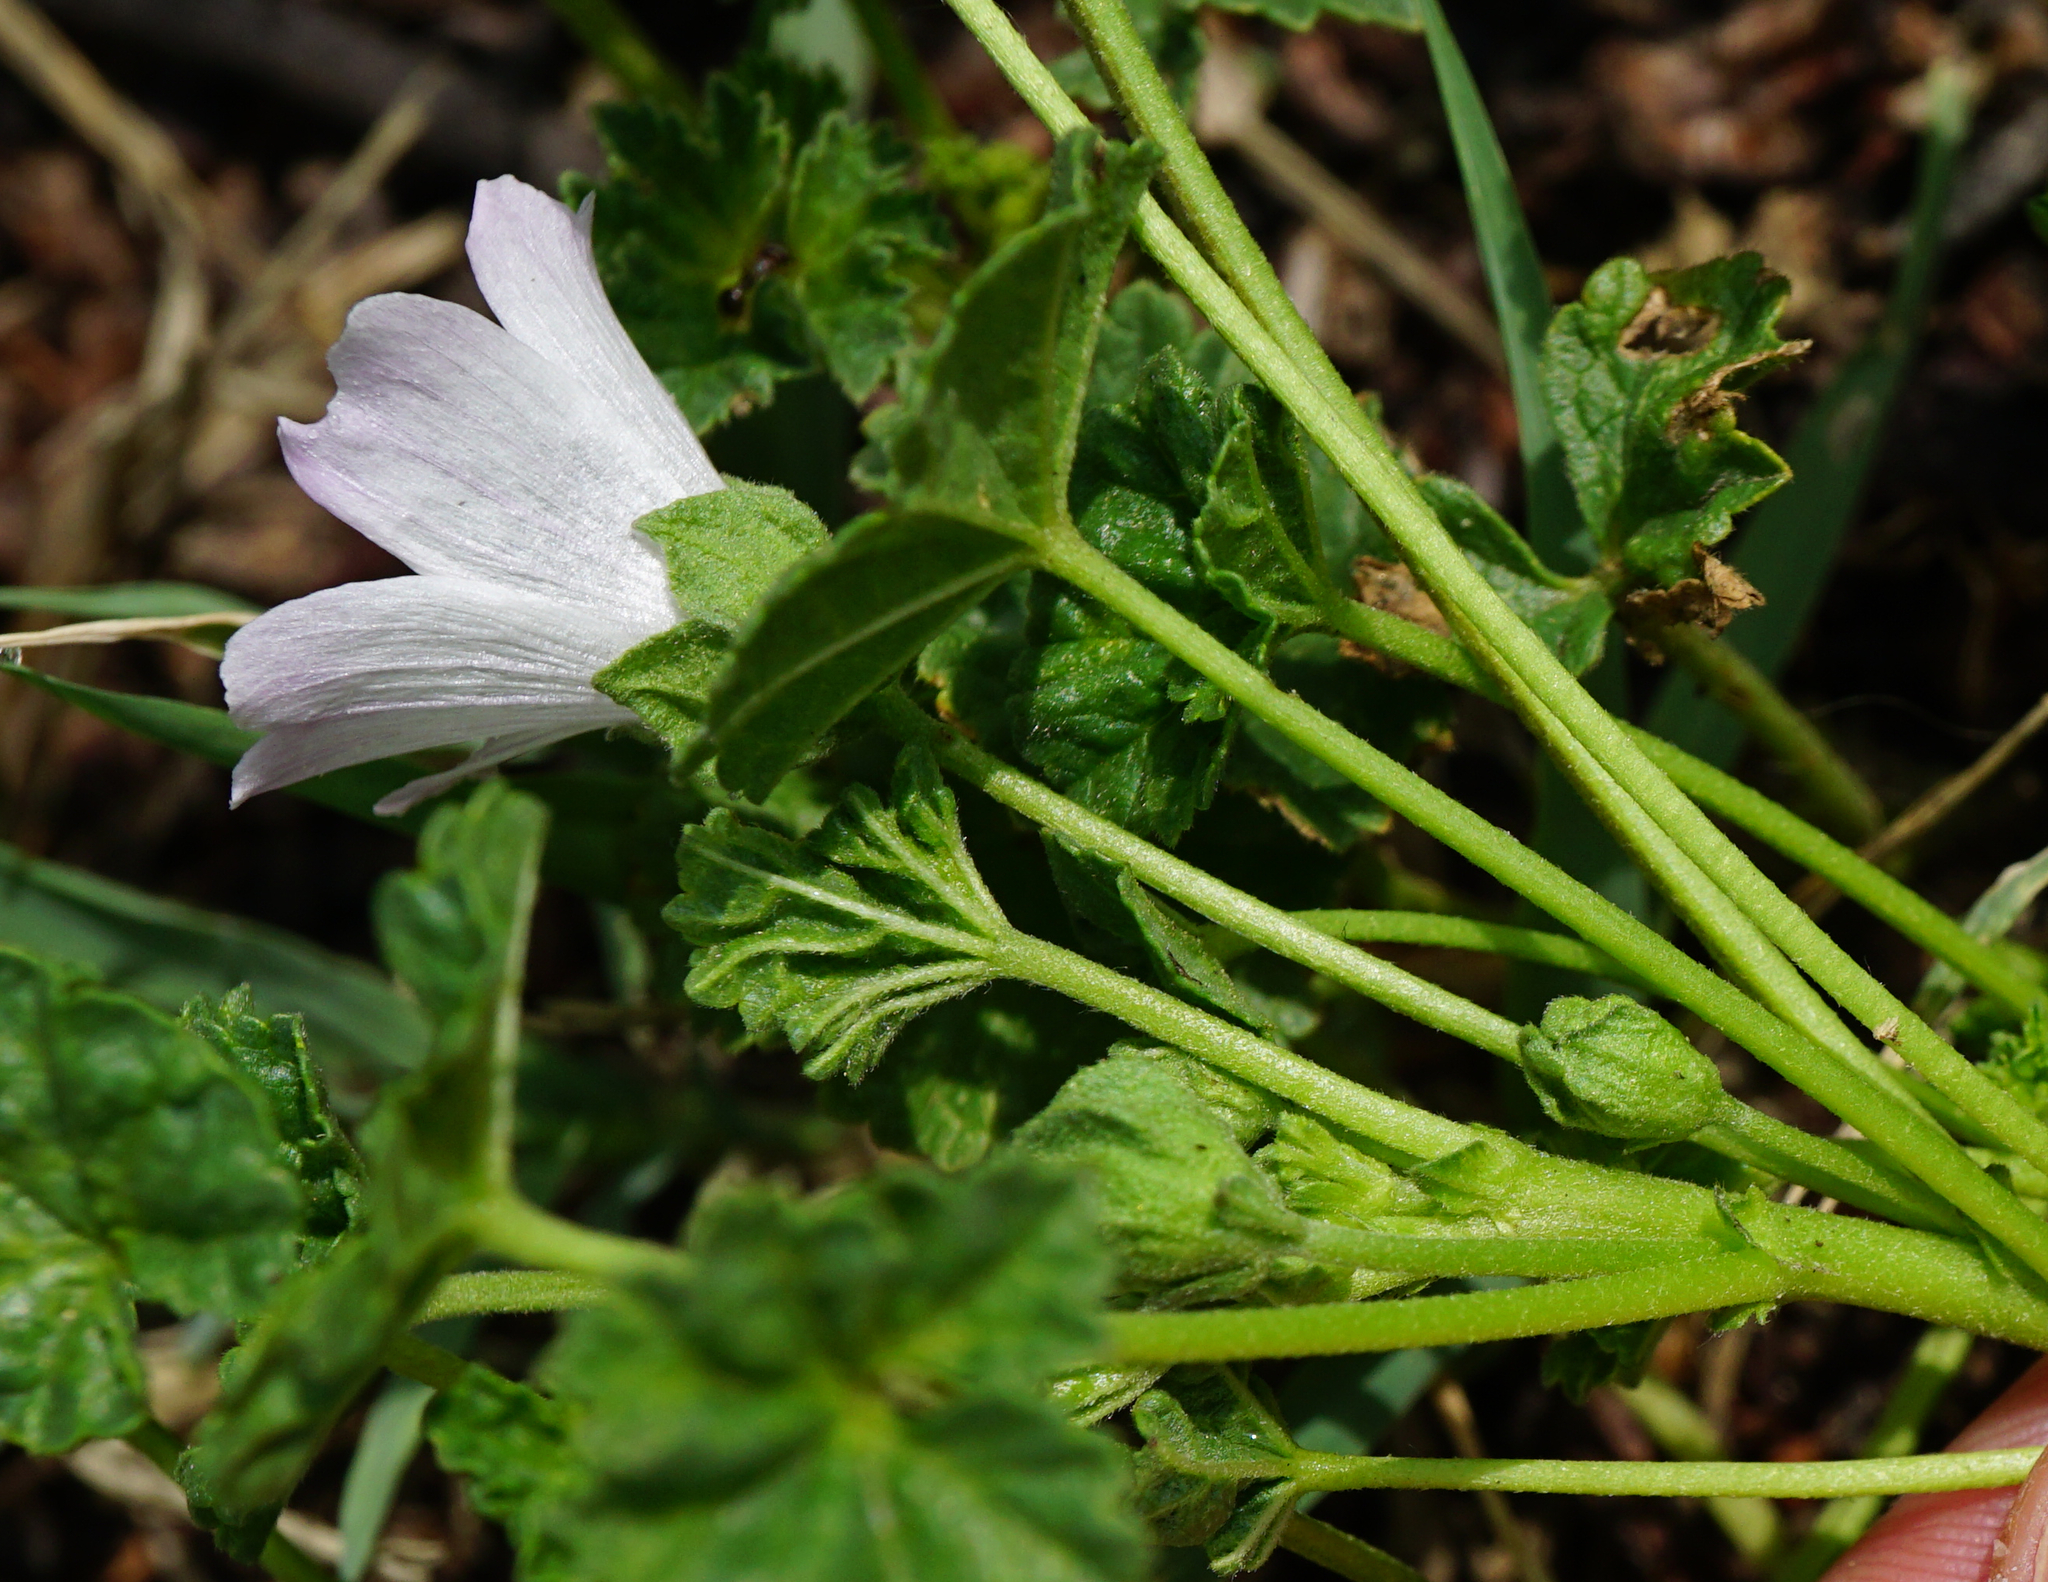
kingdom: Plantae
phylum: Tracheophyta
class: Magnoliopsida
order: Malvales
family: Malvaceae
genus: Malva
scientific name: Malva neglecta
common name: Common mallow
